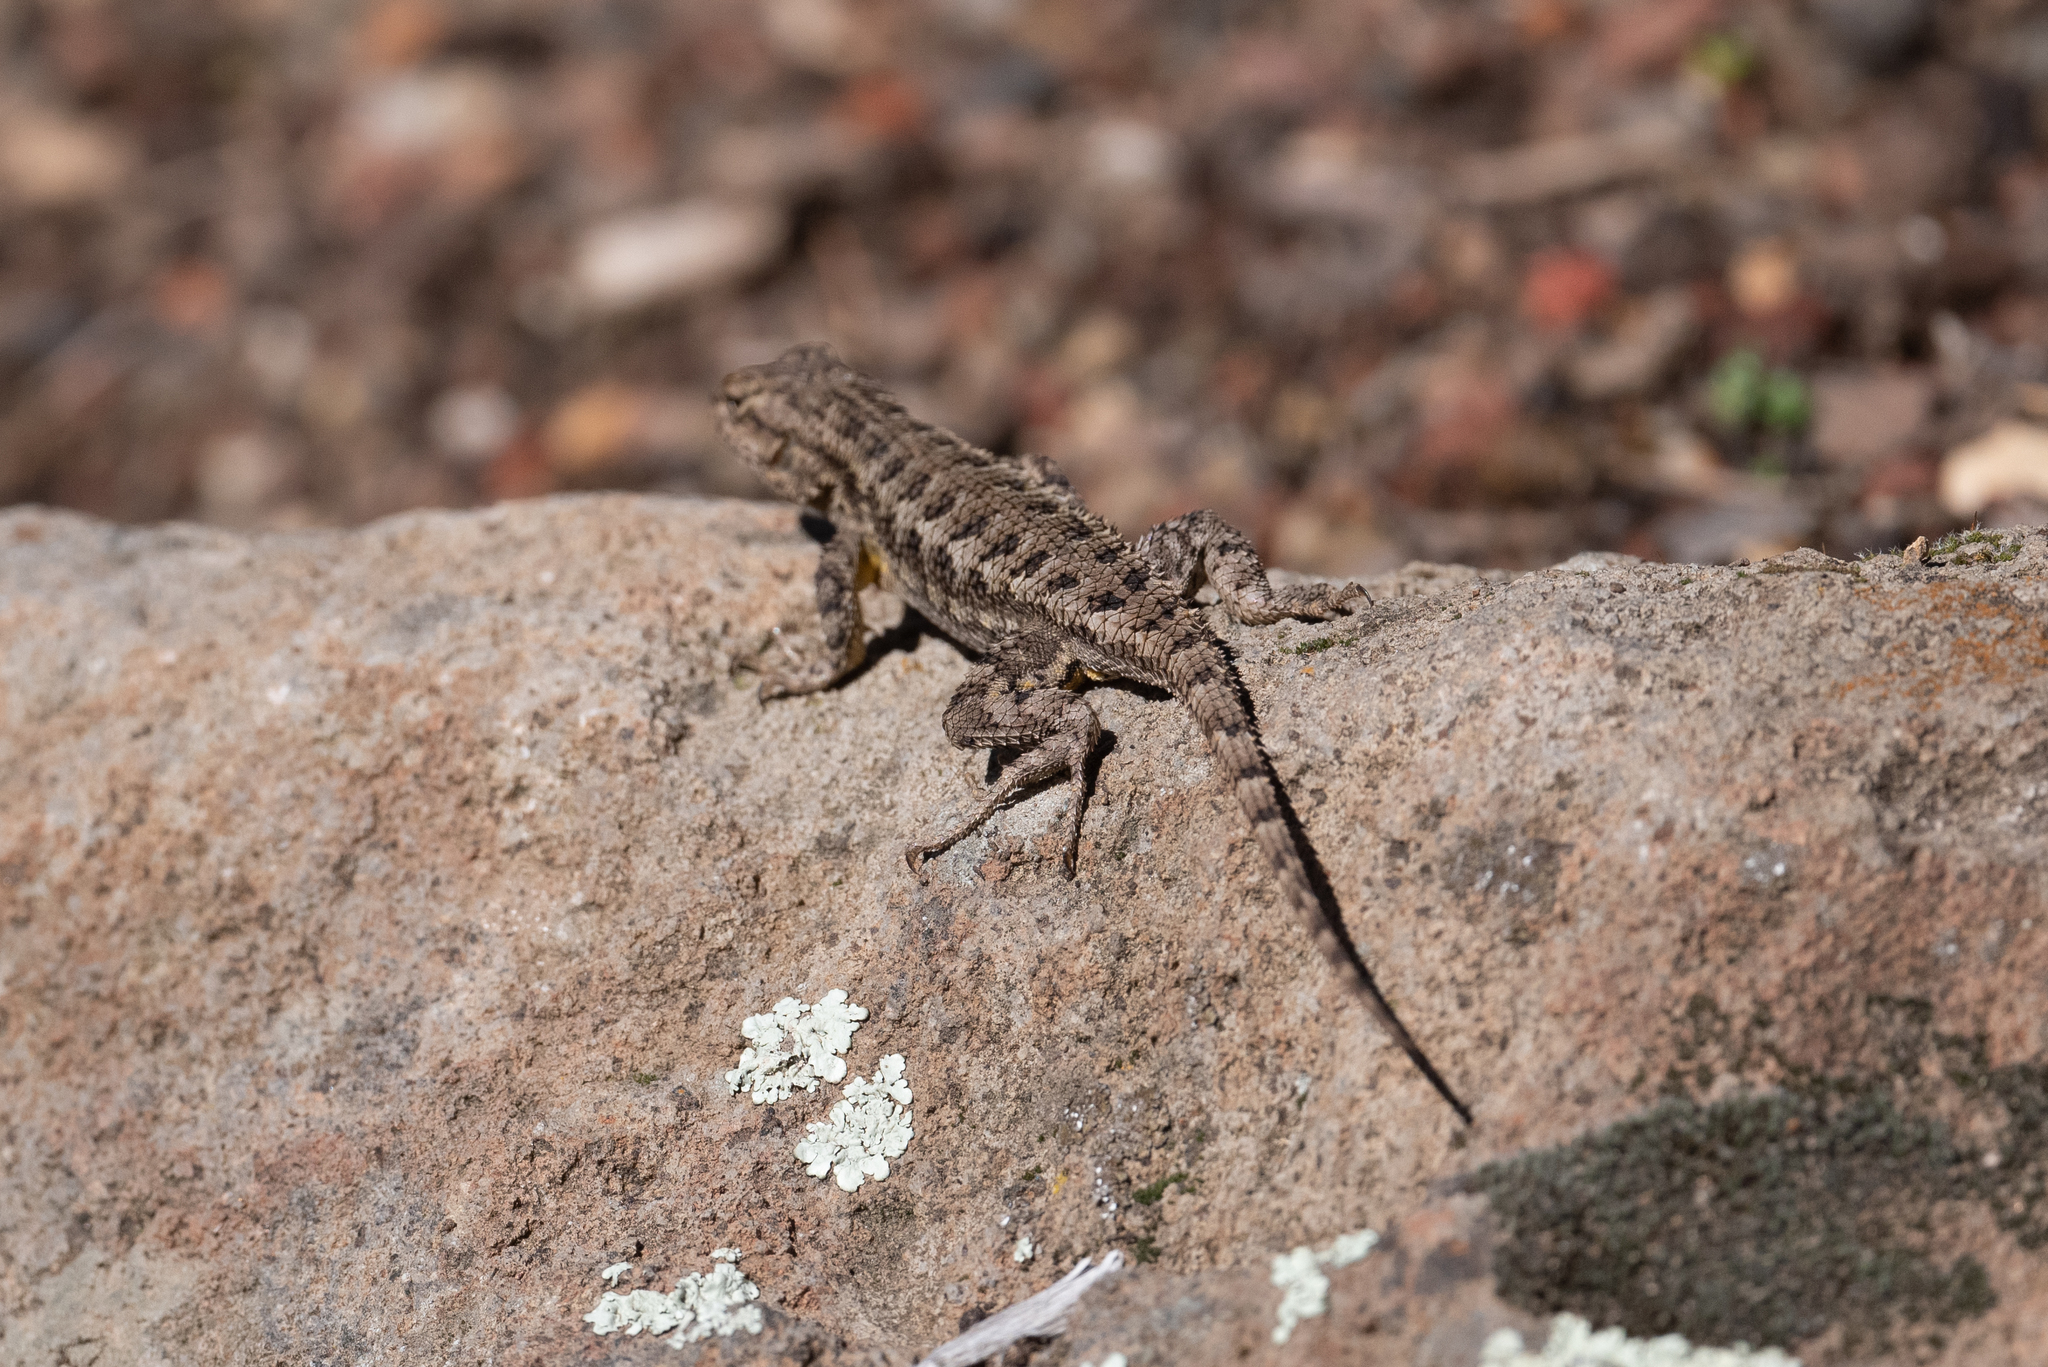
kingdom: Animalia
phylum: Chordata
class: Squamata
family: Phrynosomatidae
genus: Sceloporus
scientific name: Sceloporus occidentalis
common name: Western fence lizard
